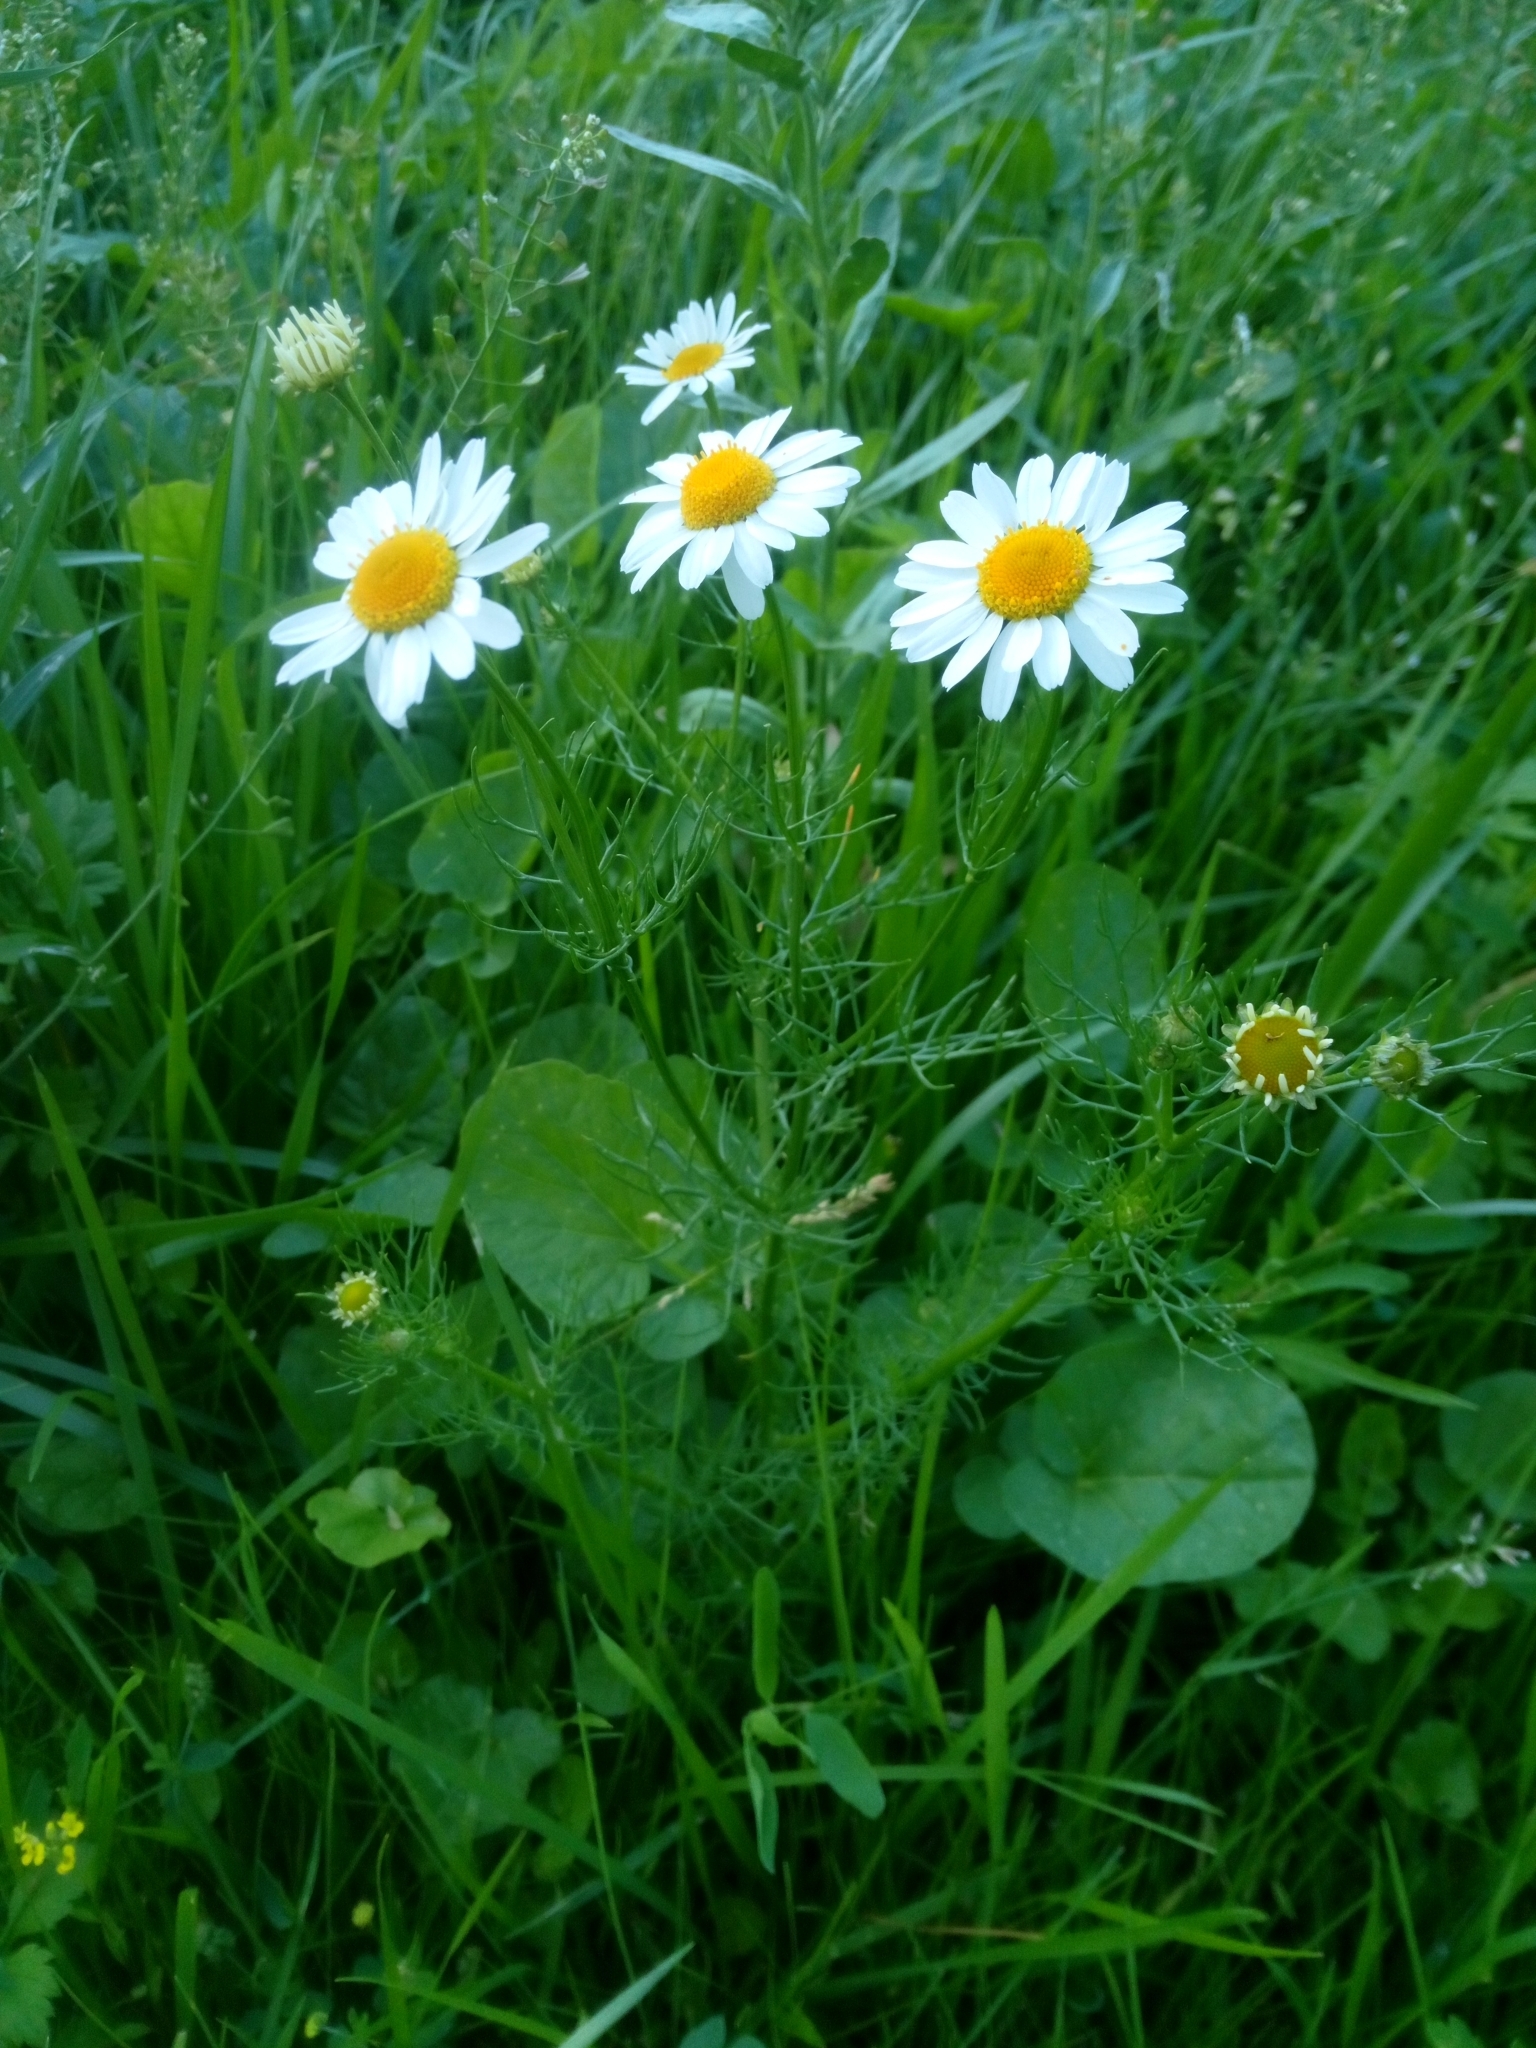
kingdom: Plantae
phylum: Tracheophyta
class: Magnoliopsida
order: Asterales
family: Asteraceae
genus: Tripleurospermum
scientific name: Tripleurospermum inodorum
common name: Scentless mayweed
